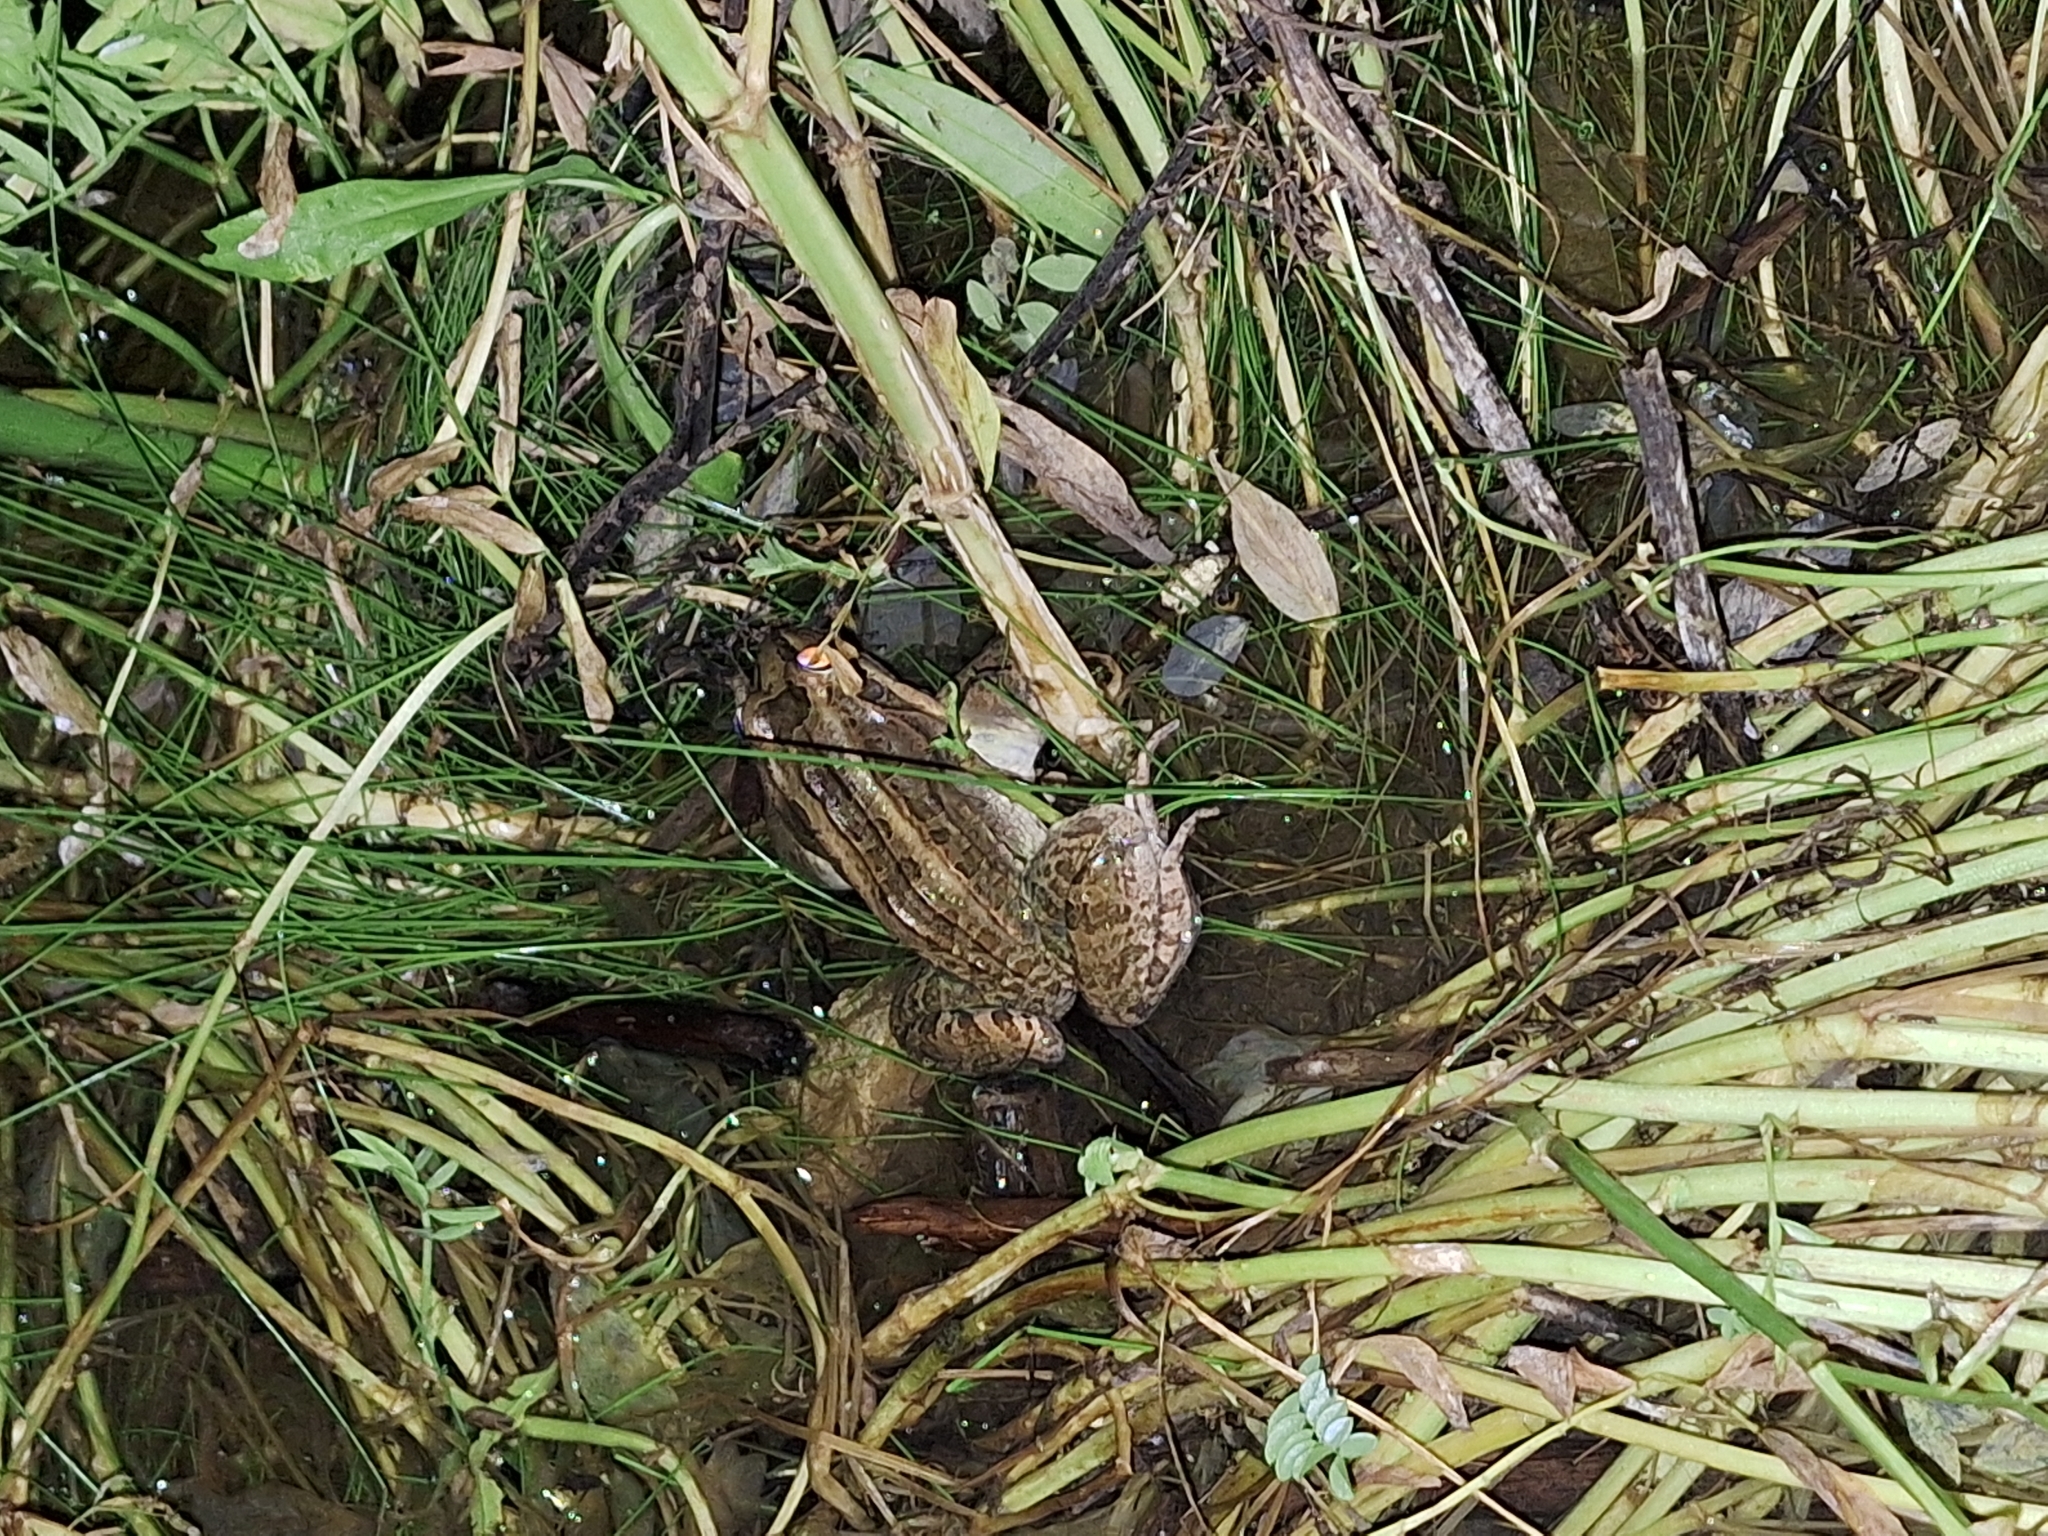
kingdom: Animalia
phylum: Chordata
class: Amphibia
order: Anura
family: Leptodactylidae
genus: Leptodactylus
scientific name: Leptodactylus luctator
